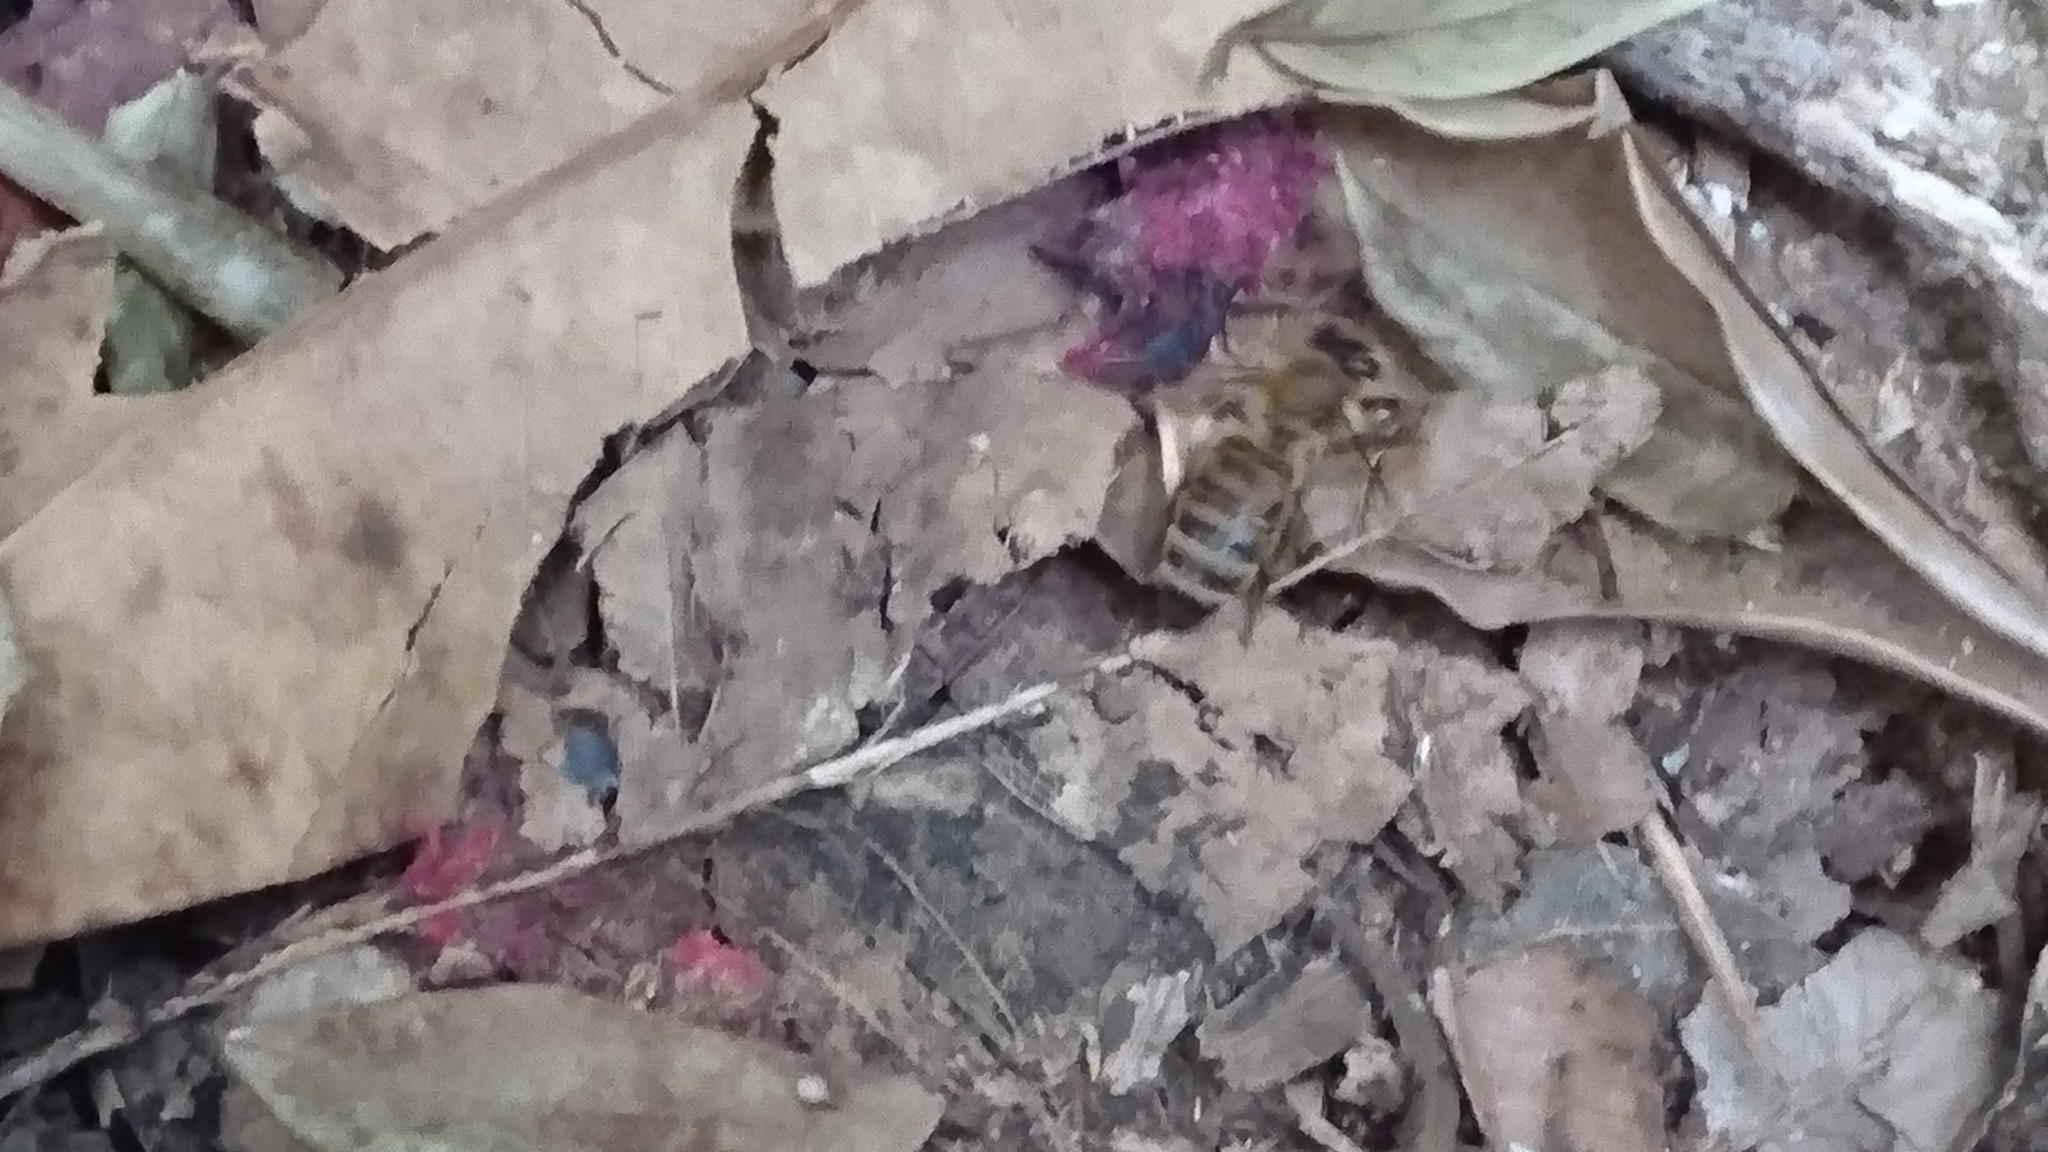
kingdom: Animalia
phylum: Arthropoda
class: Insecta
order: Hymenoptera
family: Apidae
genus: Apis
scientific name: Apis mellifera
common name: Honey bee
